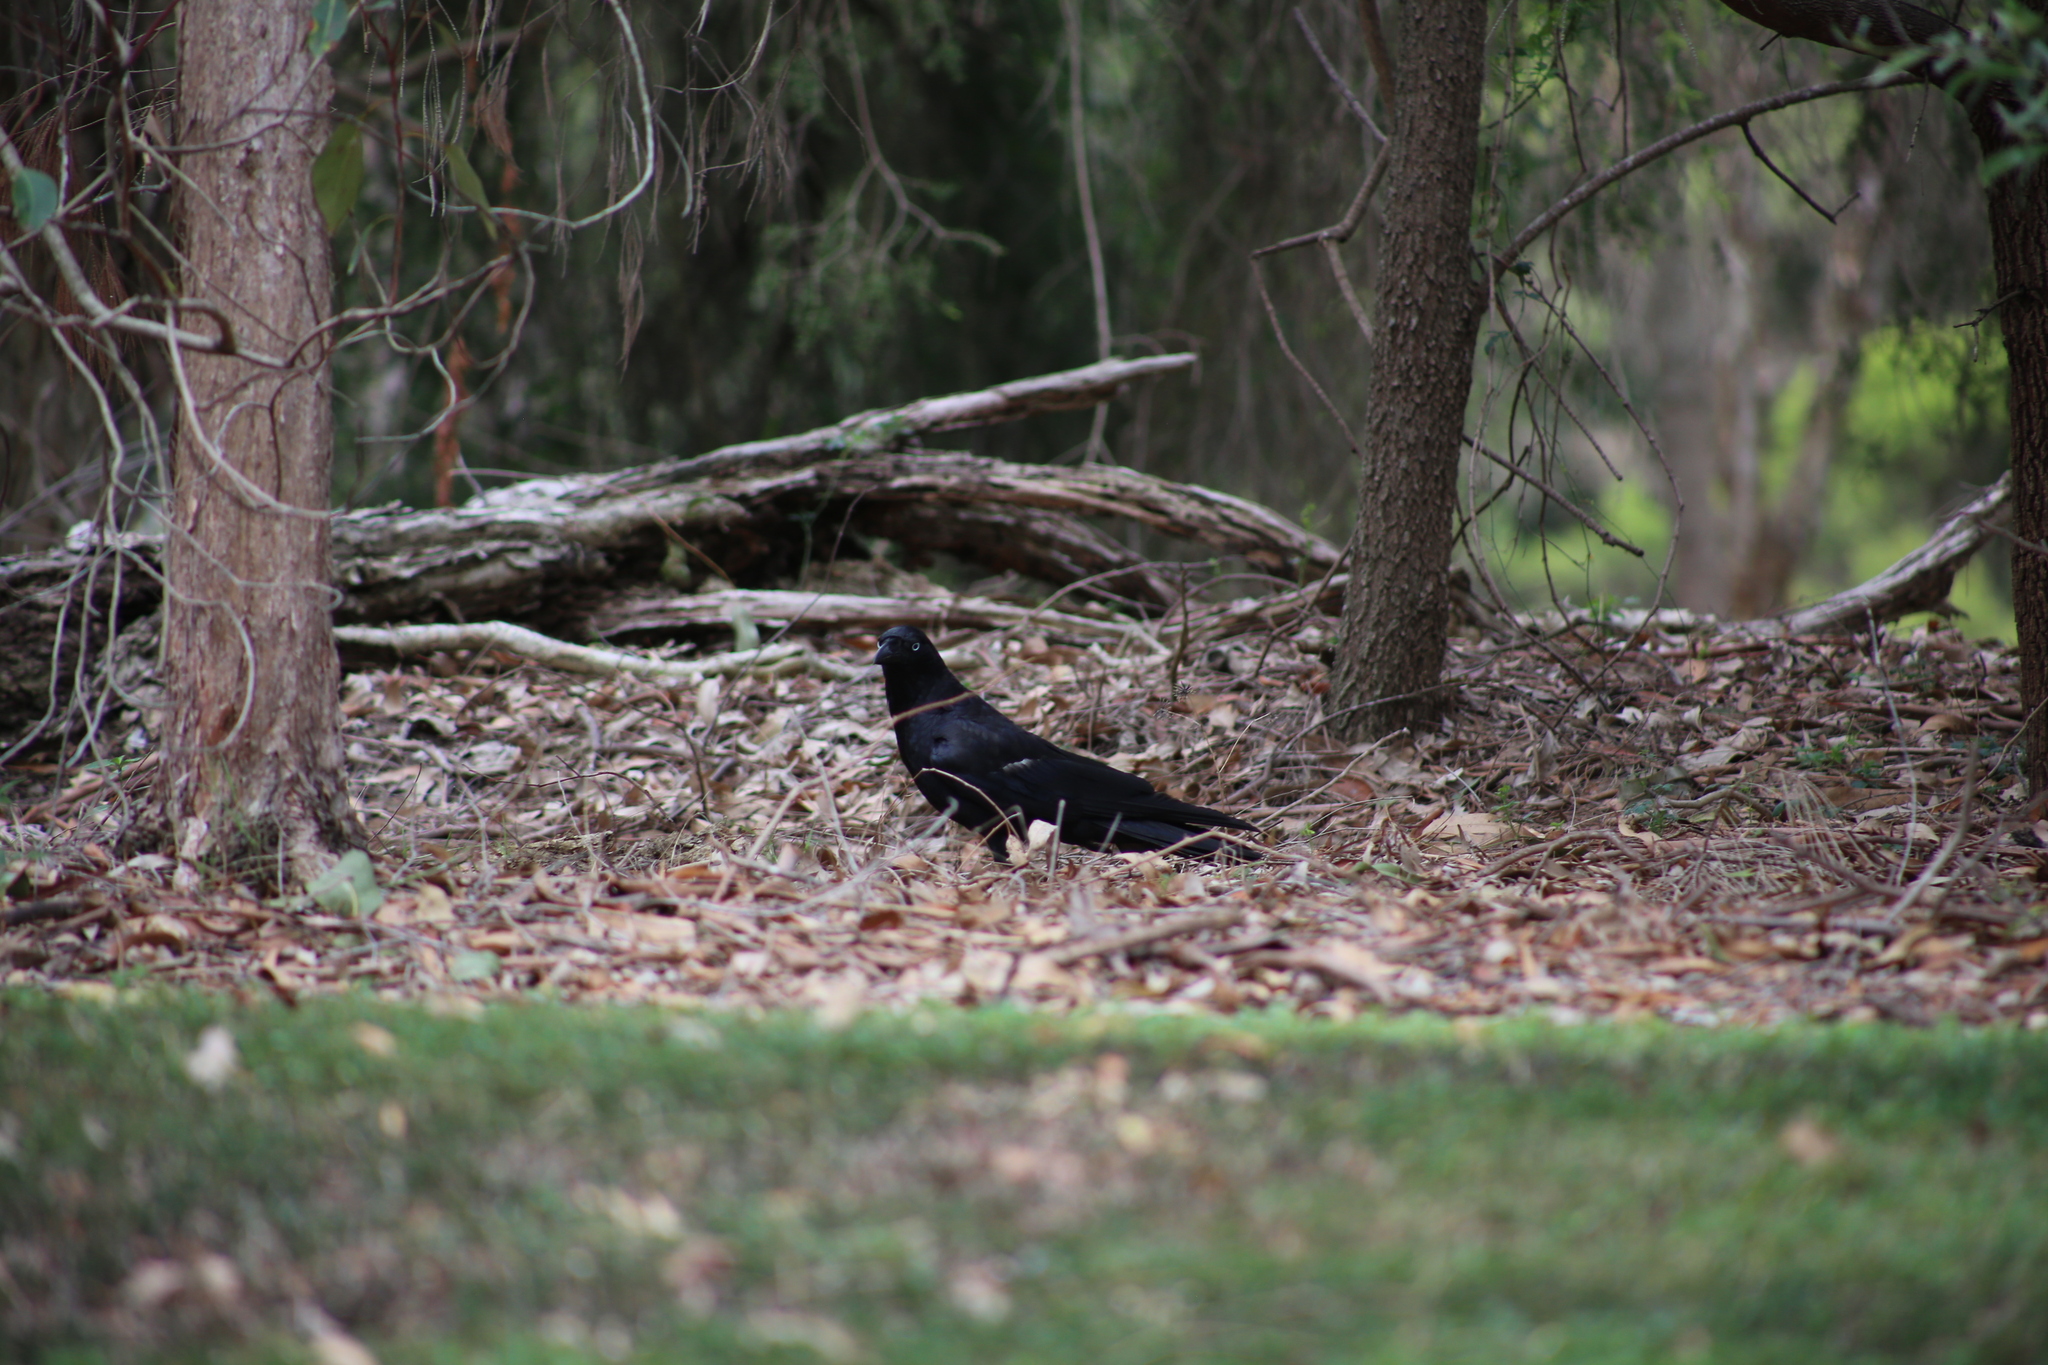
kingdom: Animalia
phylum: Chordata
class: Aves
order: Passeriformes
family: Corvidae
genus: Corvus
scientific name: Corvus orru
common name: Torresian crow
